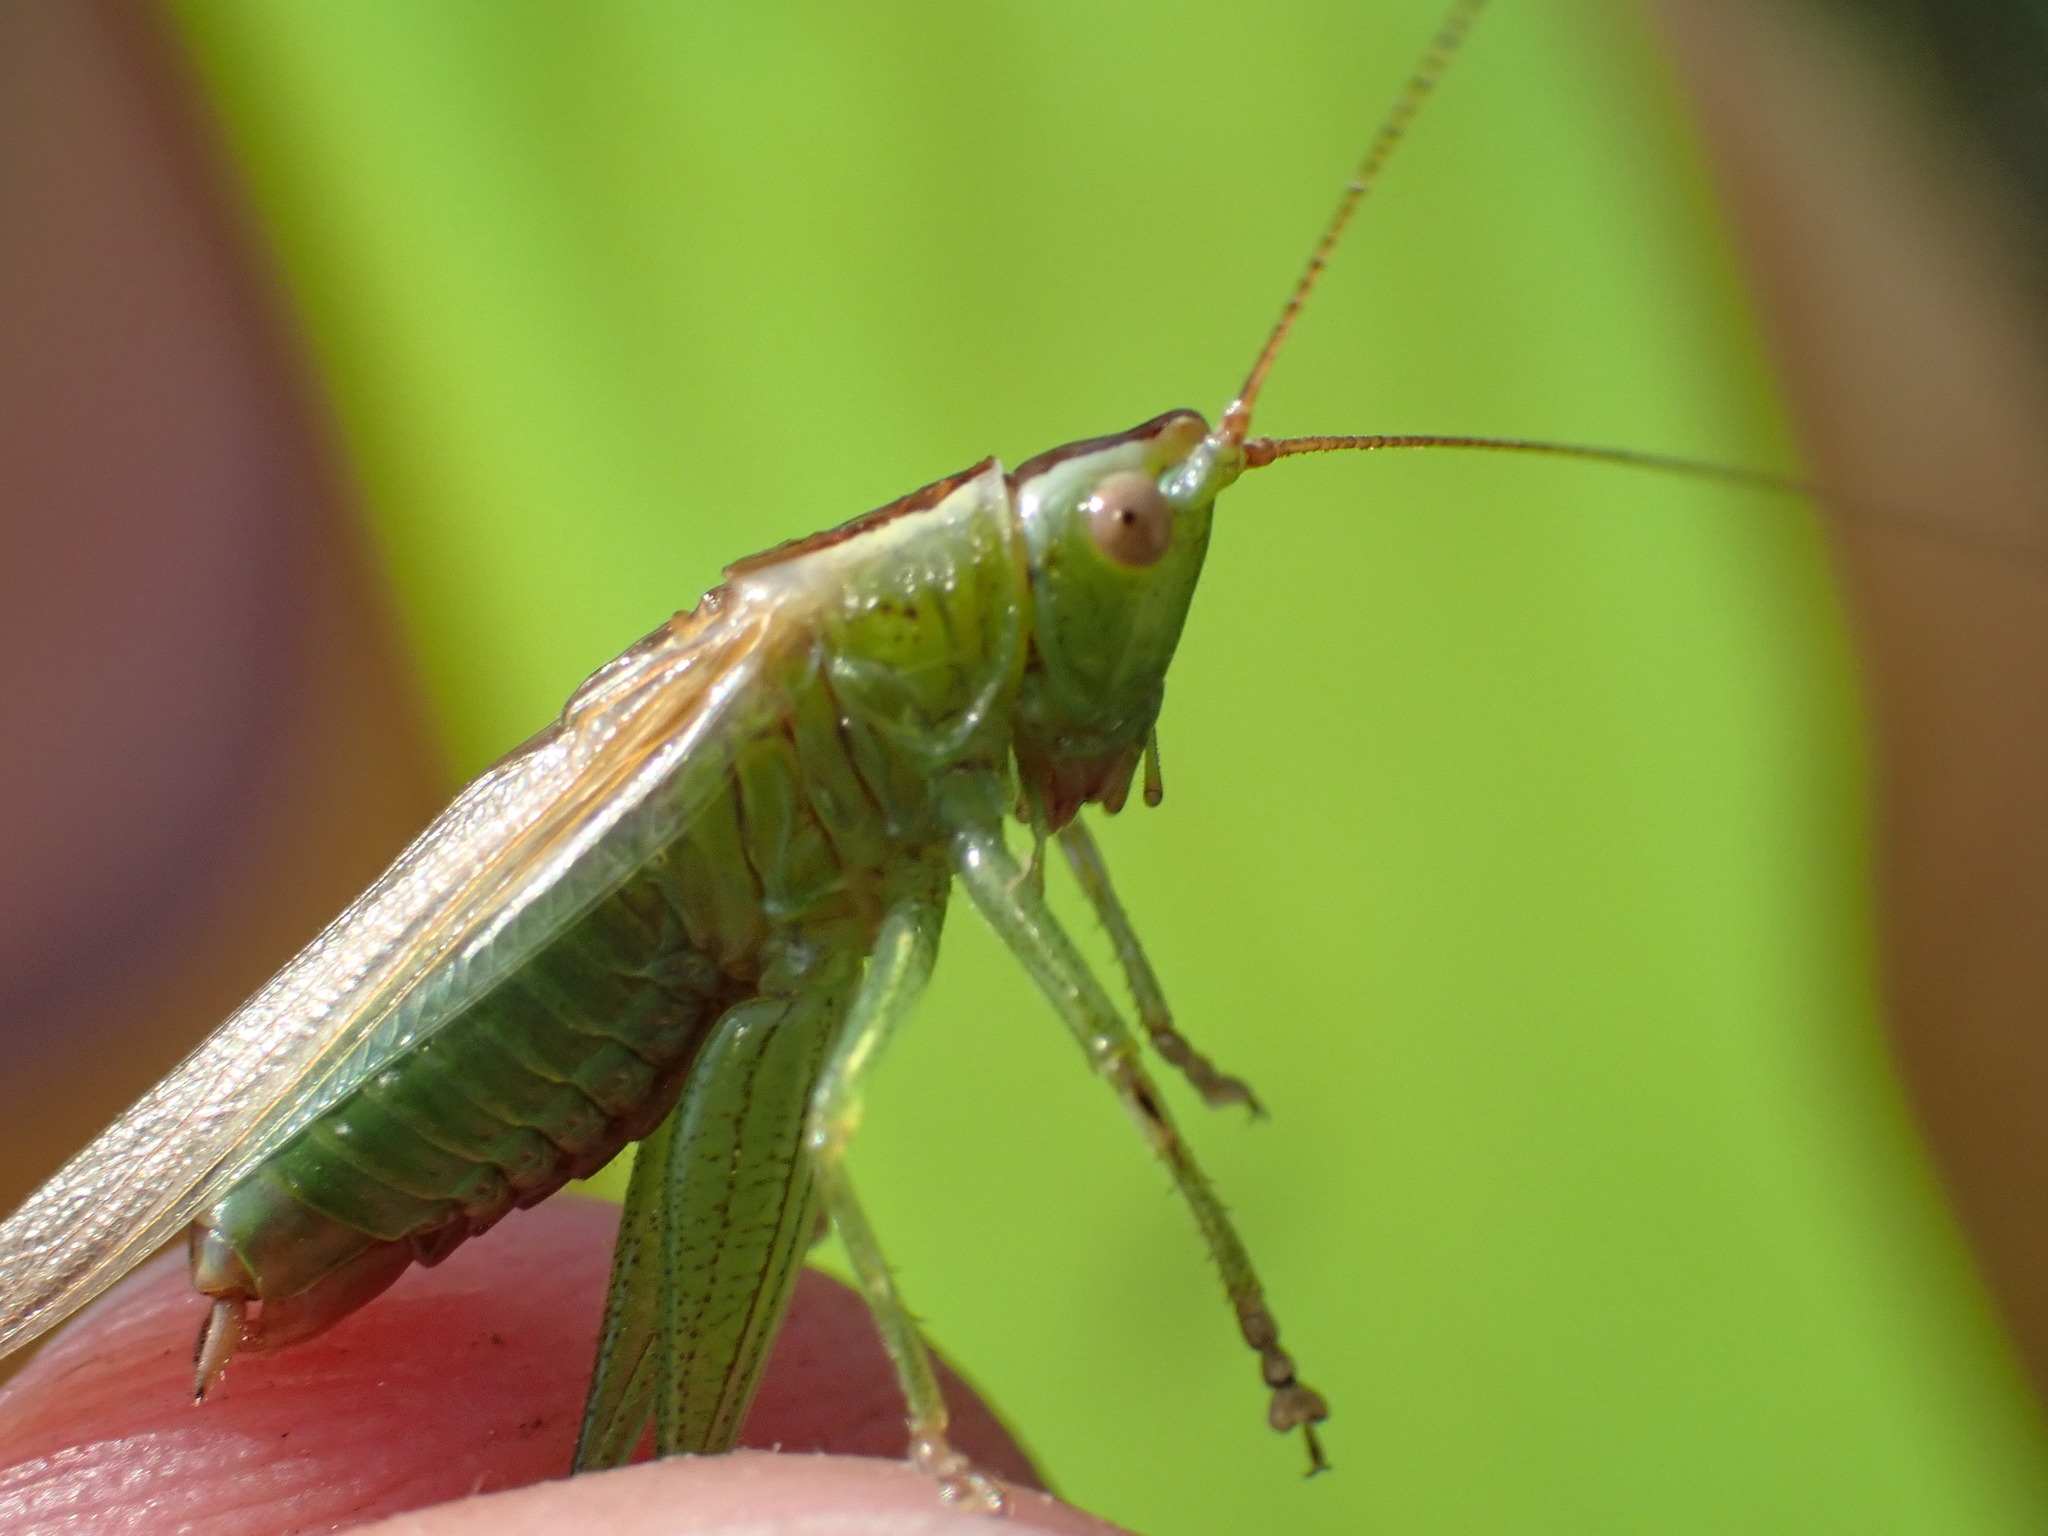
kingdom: Animalia
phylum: Arthropoda
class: Insecta
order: Orthoptera
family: Tettigoniidae
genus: Conocephalus
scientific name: Conocephalus
